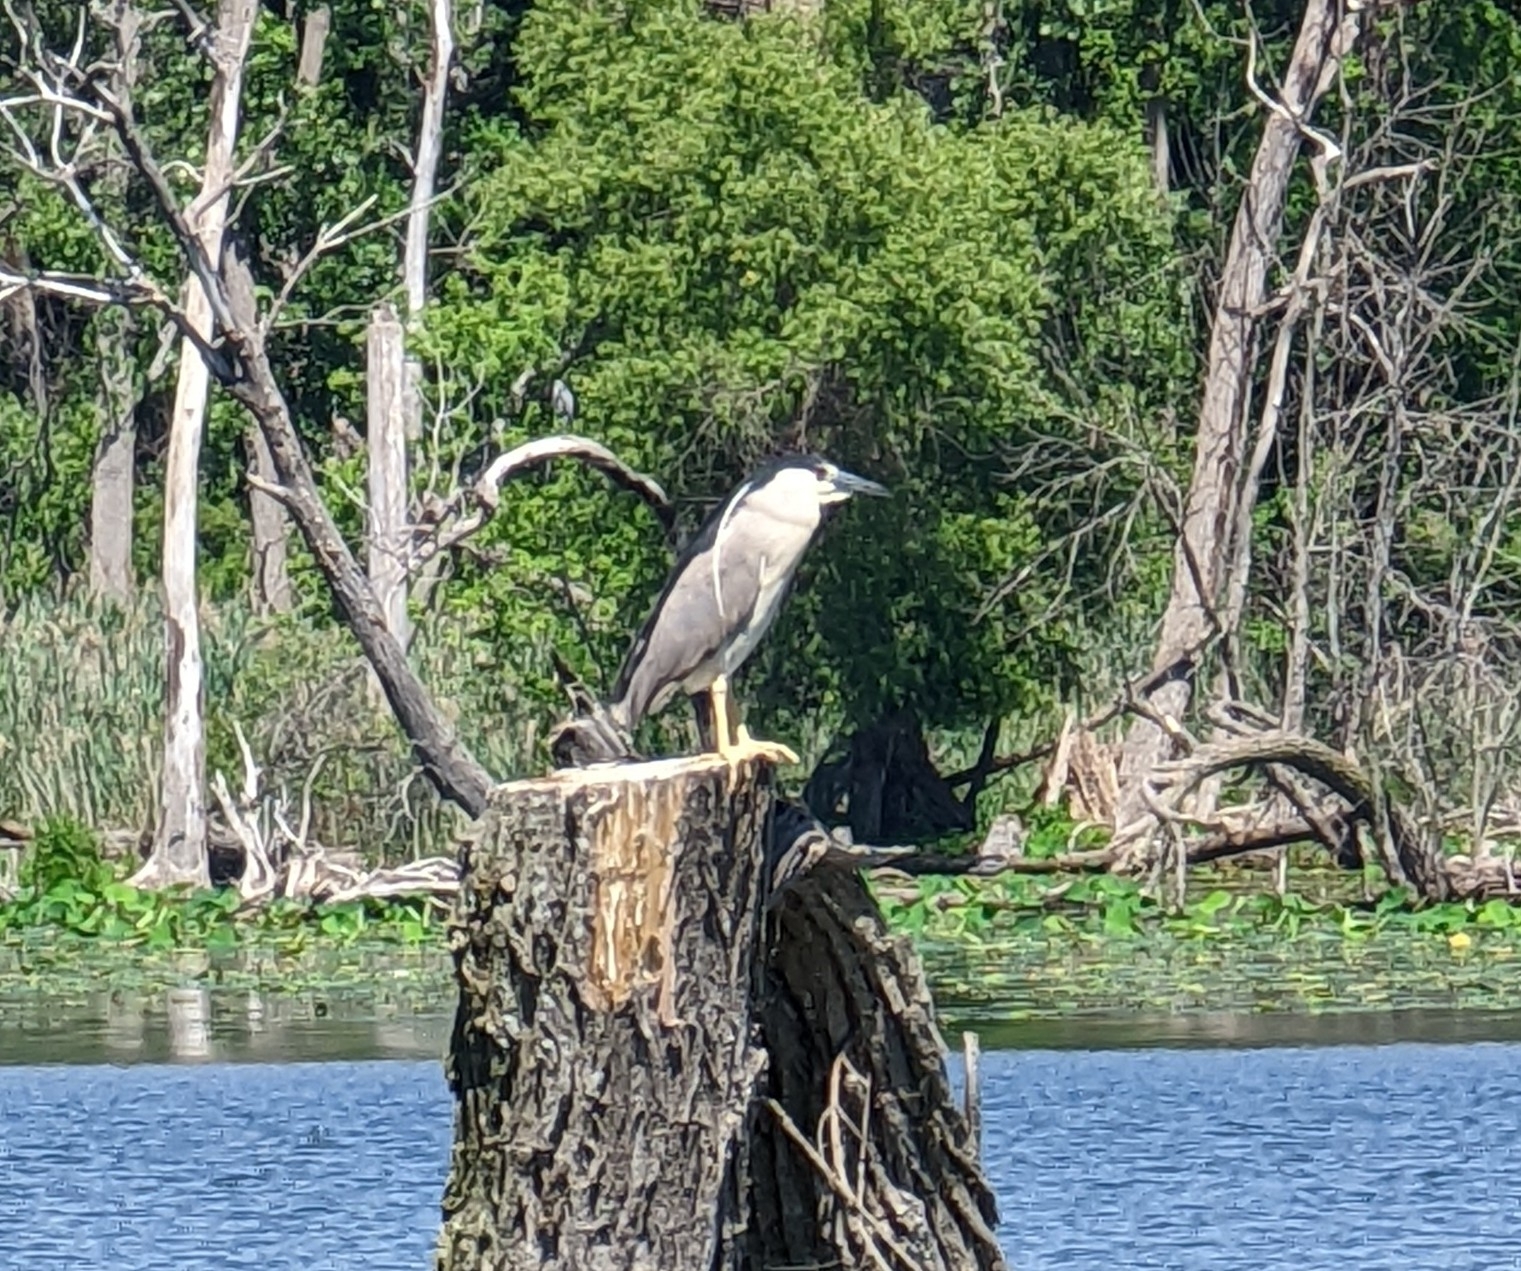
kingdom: Animalia
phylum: Chordata
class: Aves
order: Pelecaniformes
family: Ardeidae
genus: Nycticorax
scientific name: Nycticorax nycticorax
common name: Black-crowned night heron
